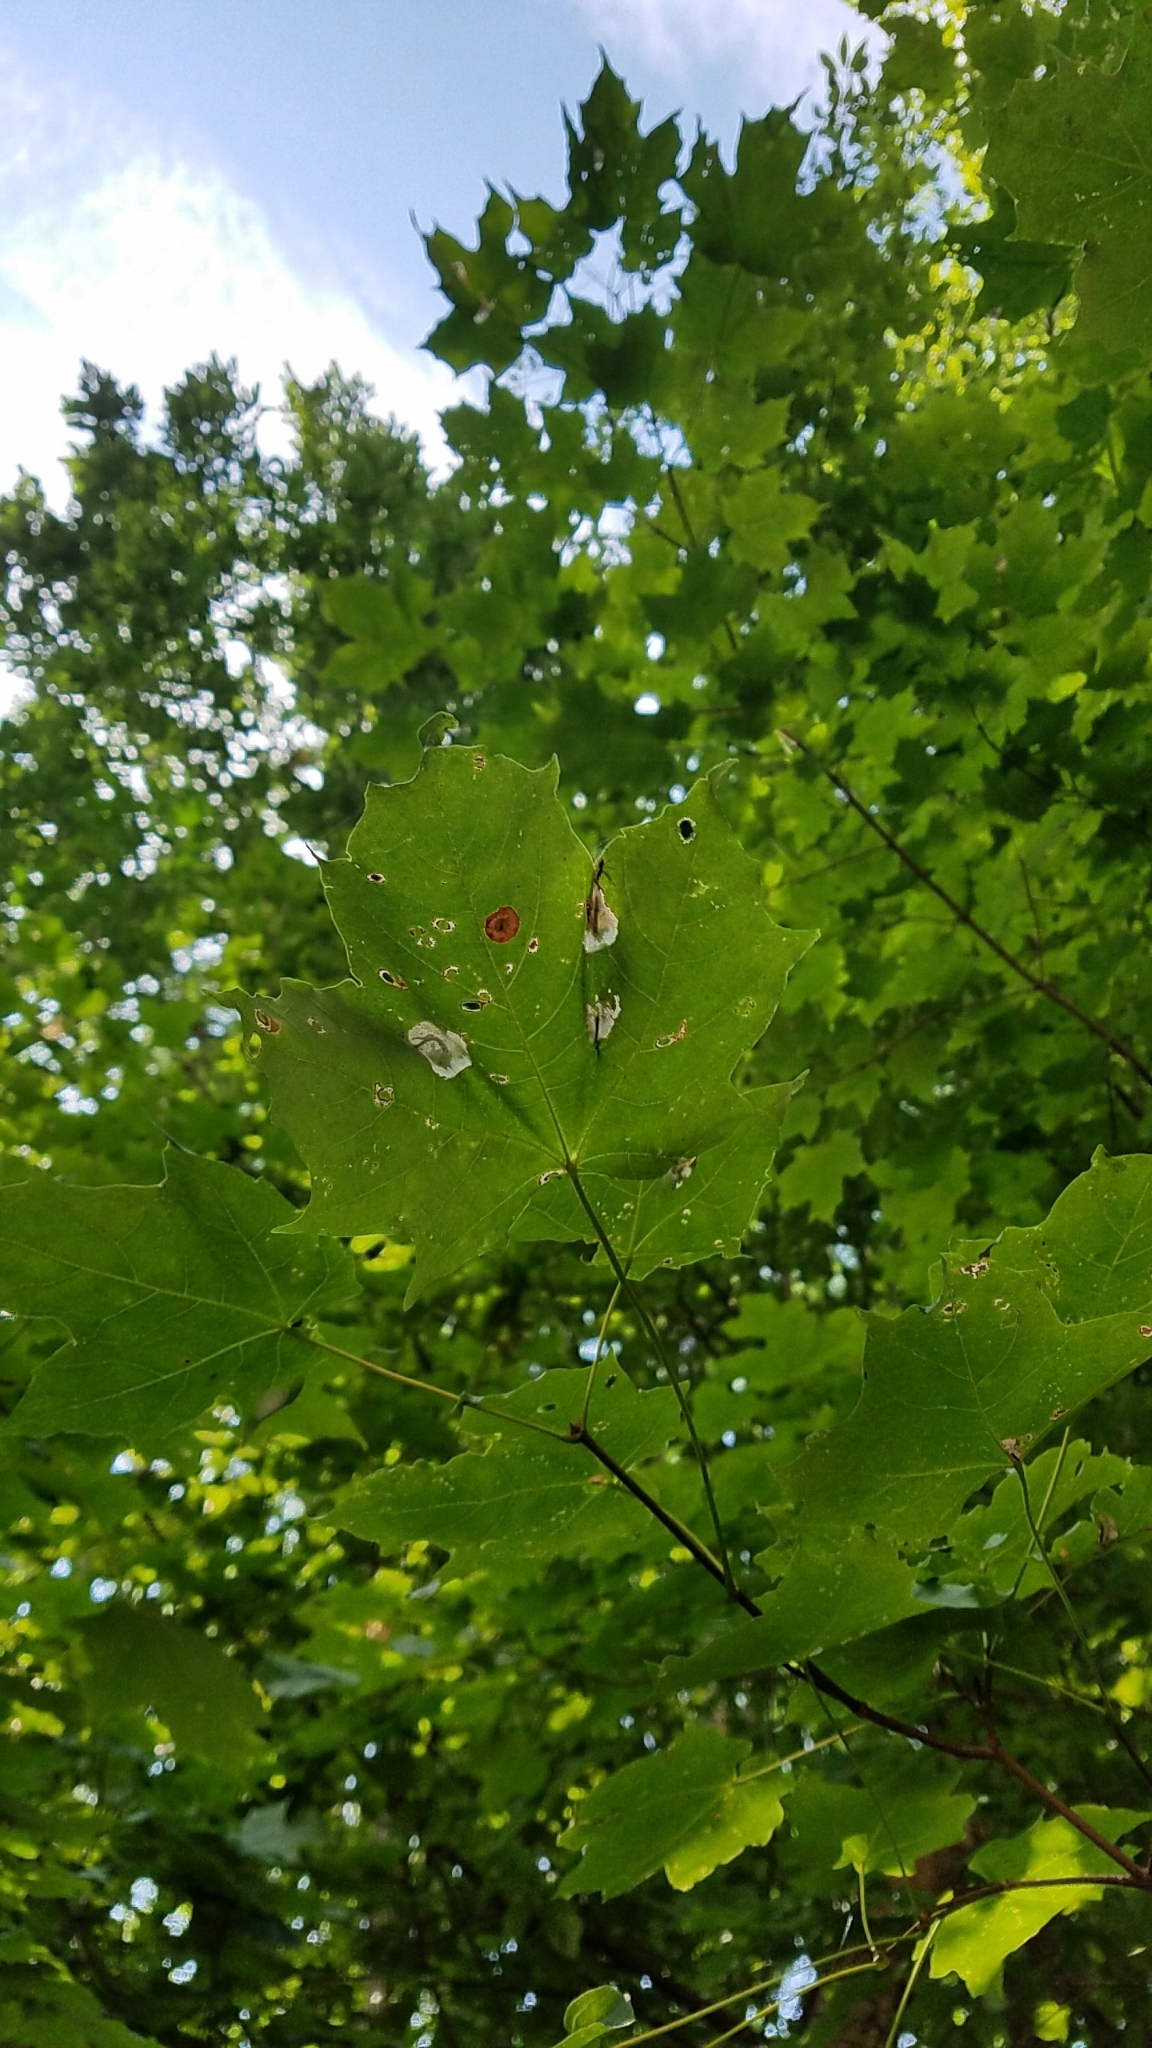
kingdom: Plantae
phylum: Tracheophyta
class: Magnoliopsida
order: Sapindales
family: Sapindaceae
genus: Acer
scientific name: Acer saccharum
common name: Sugar maple
